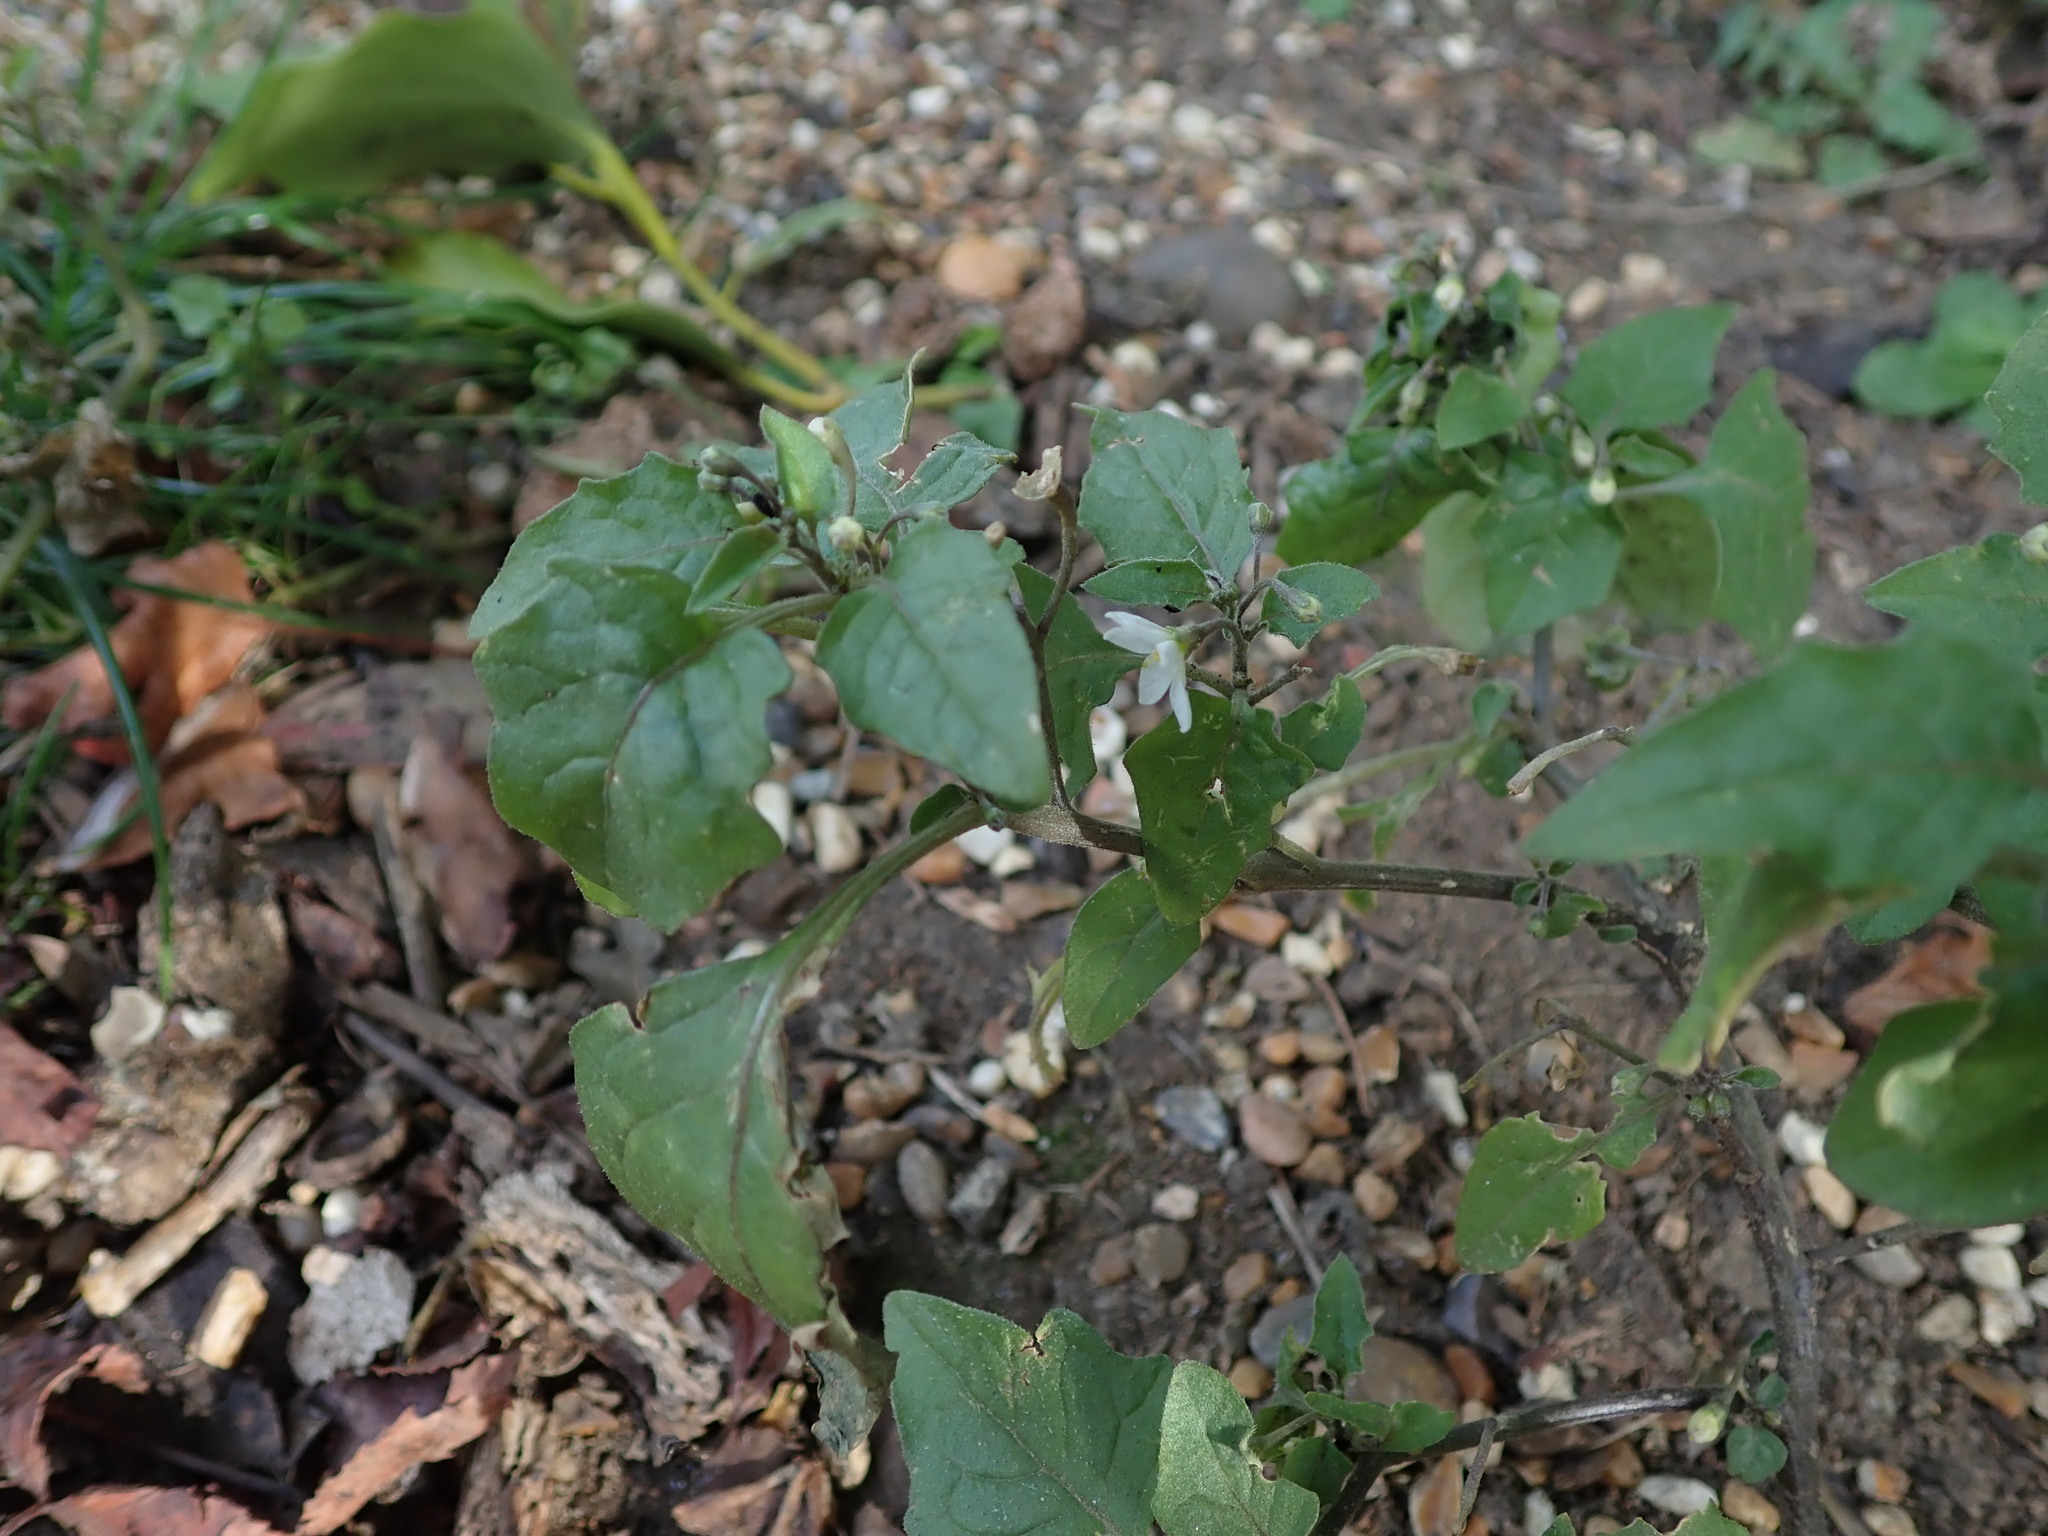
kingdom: Plantae
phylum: Tracheophyta
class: Magnoliopsida
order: Solanales
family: Solanaceae
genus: Solanum
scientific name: Solanum nigrum
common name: Black nightshade
